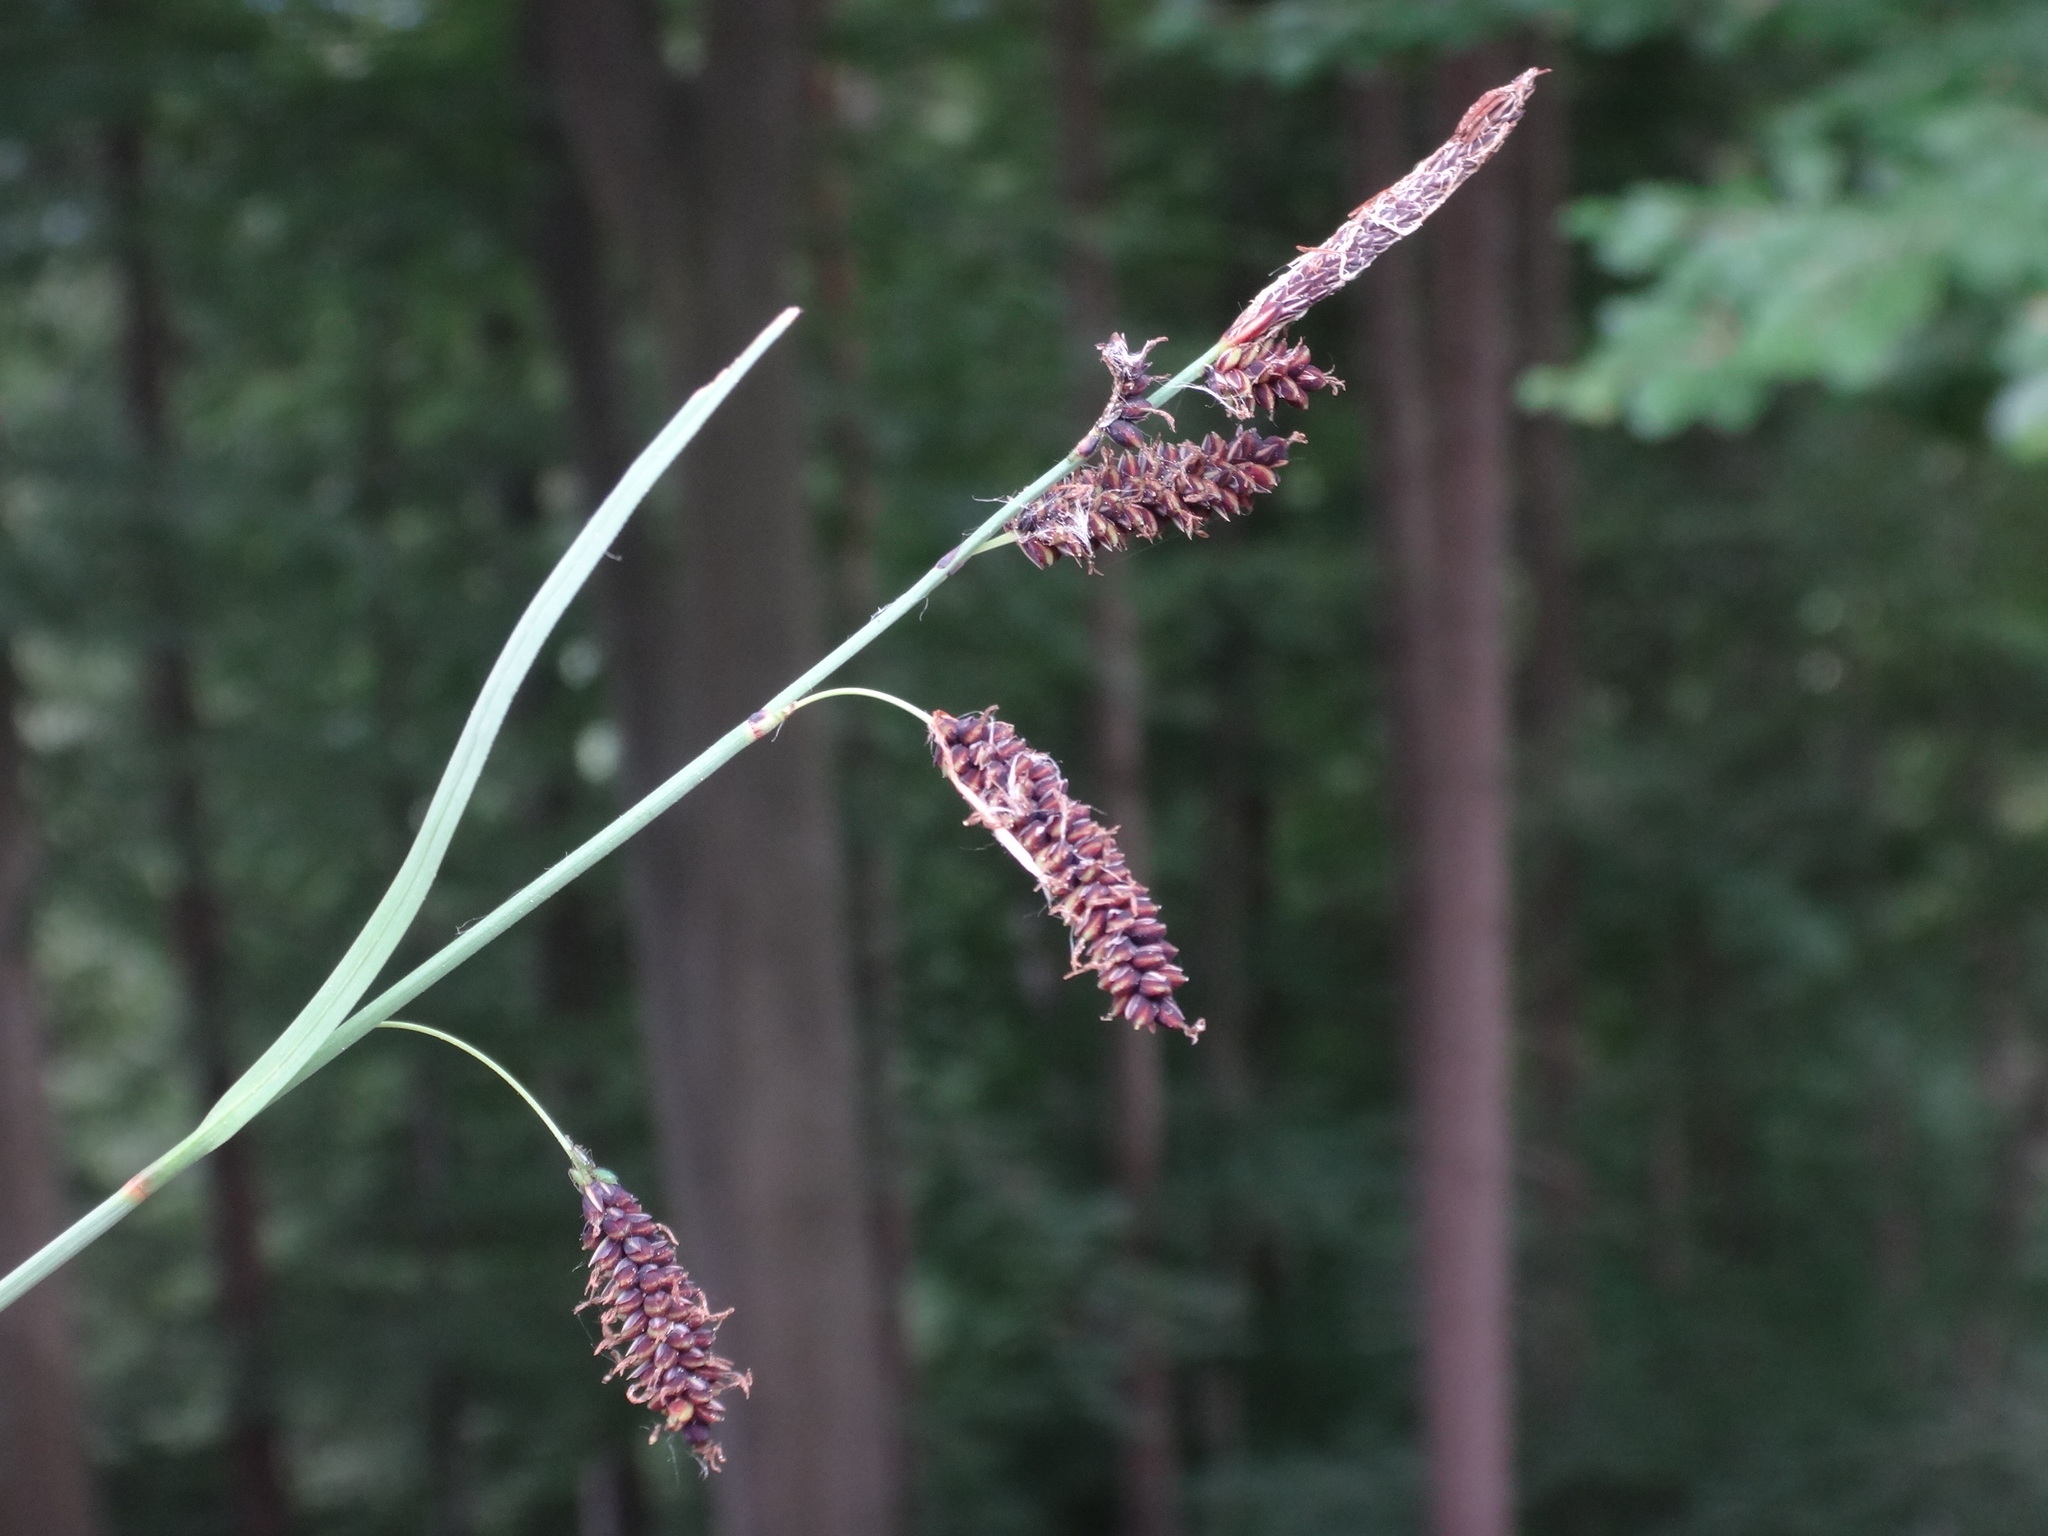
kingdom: Plantae
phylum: Tracheophyta
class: Liliopsida
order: Poales
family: Cyperaceae
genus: Carex
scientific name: Carex flacca
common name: Glaucous sedge
